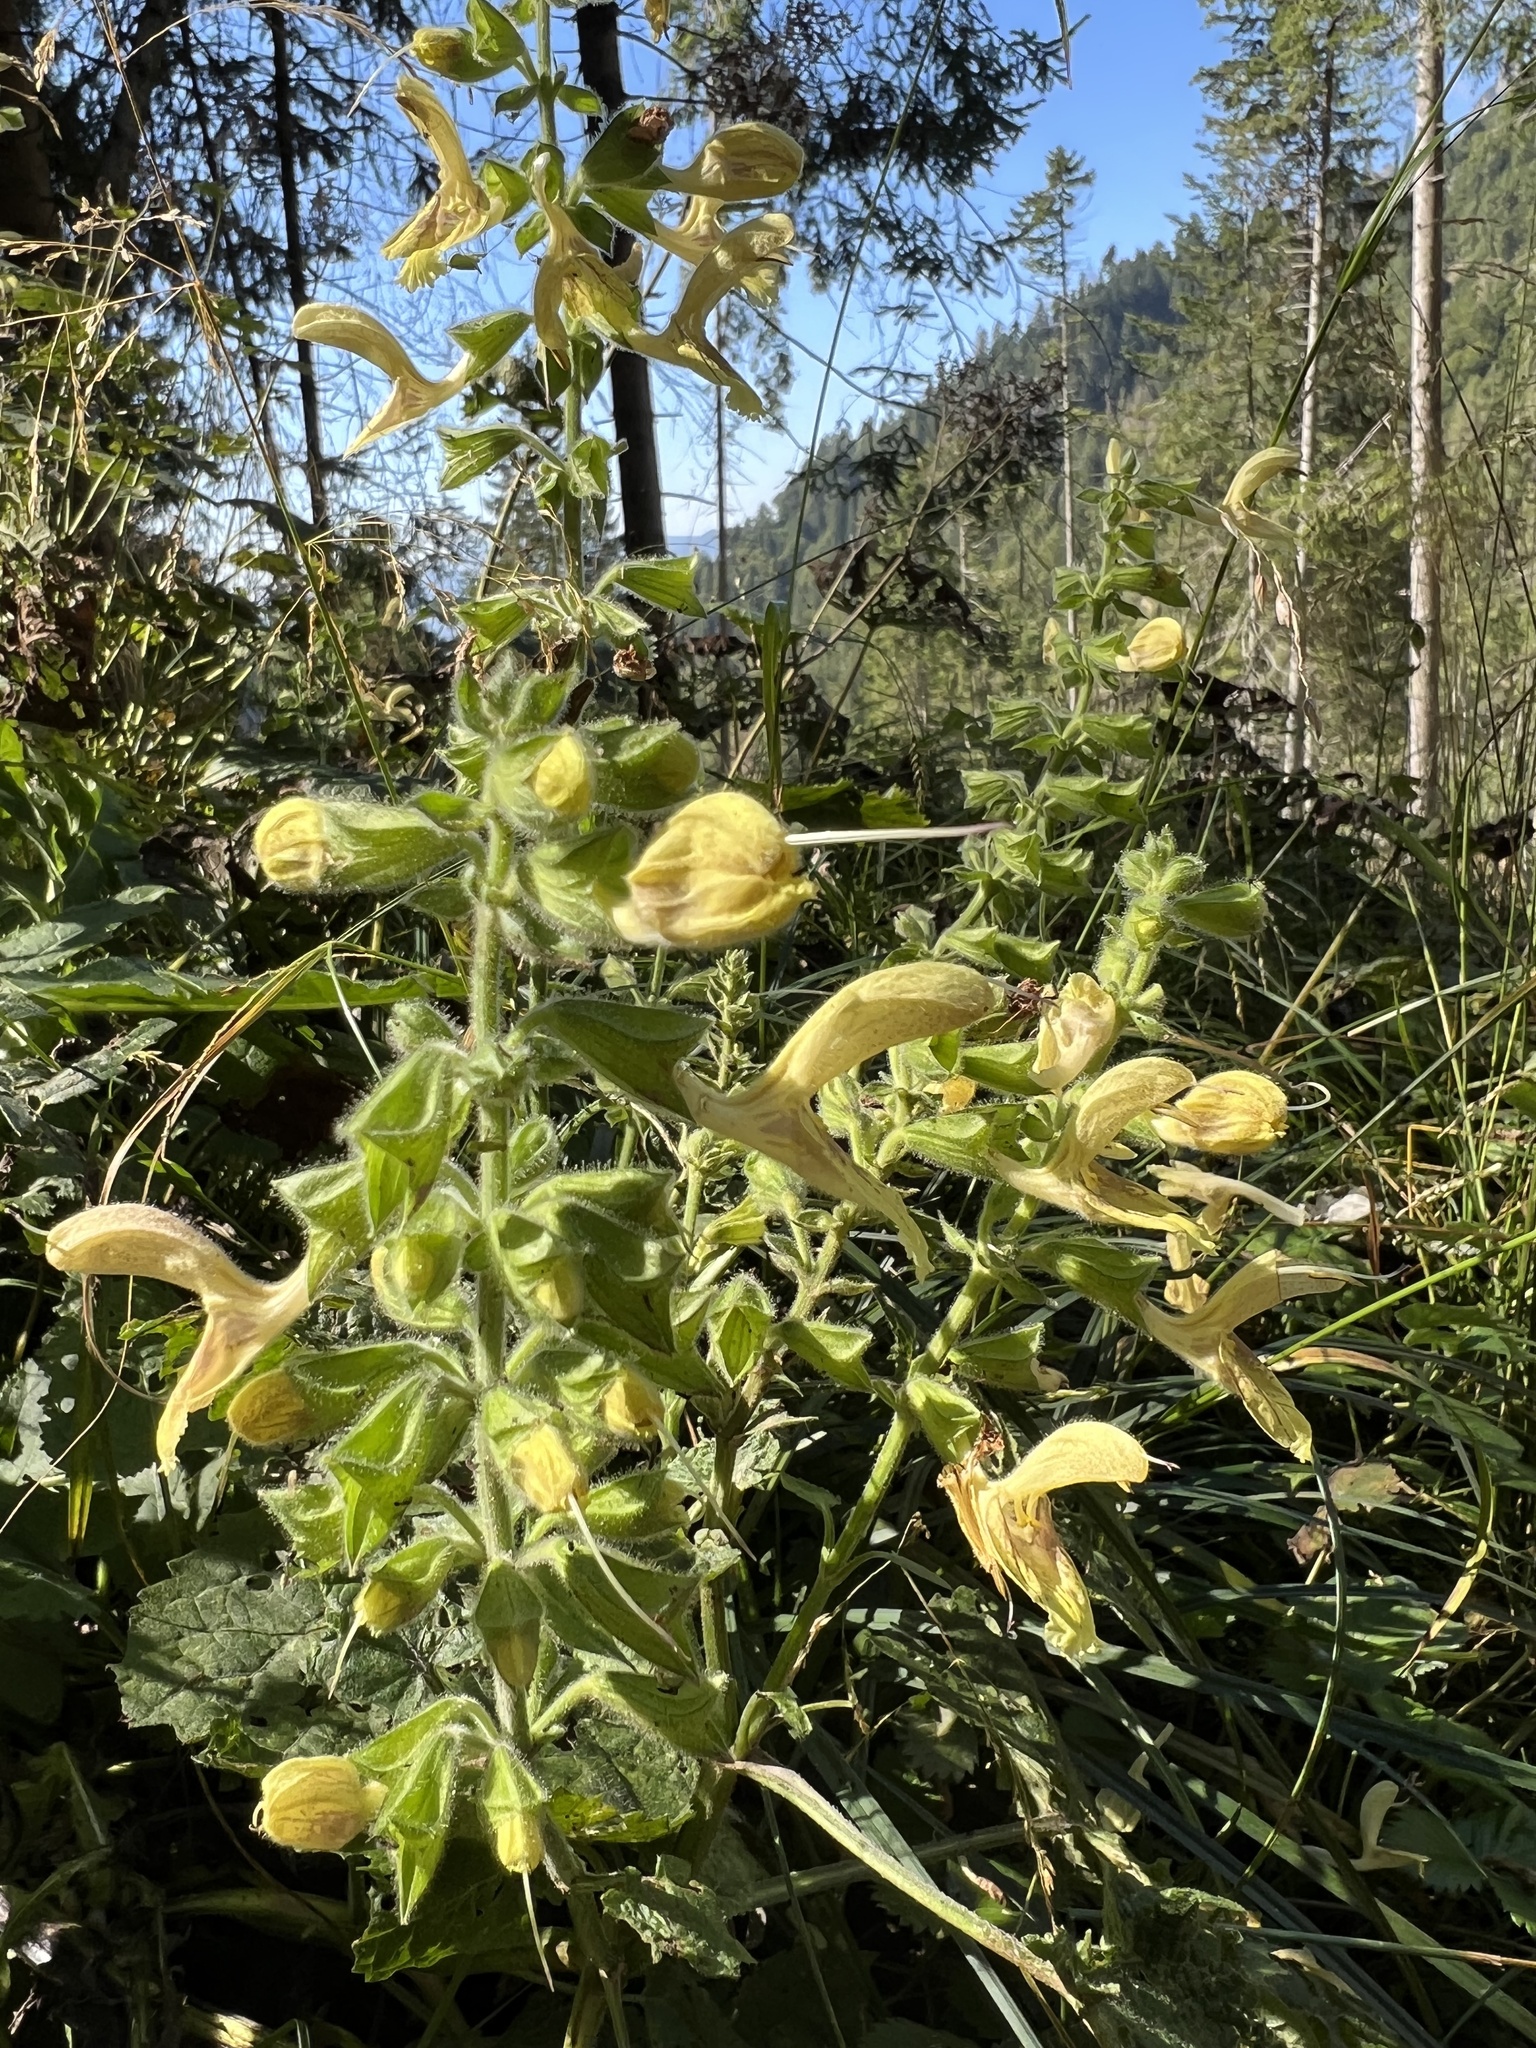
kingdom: Plantae
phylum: Tracheophyta
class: Magnoliopsida
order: Lamiales
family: Lamiaceae
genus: Salvia
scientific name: Salvia glutinosa
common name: Sticky clary
